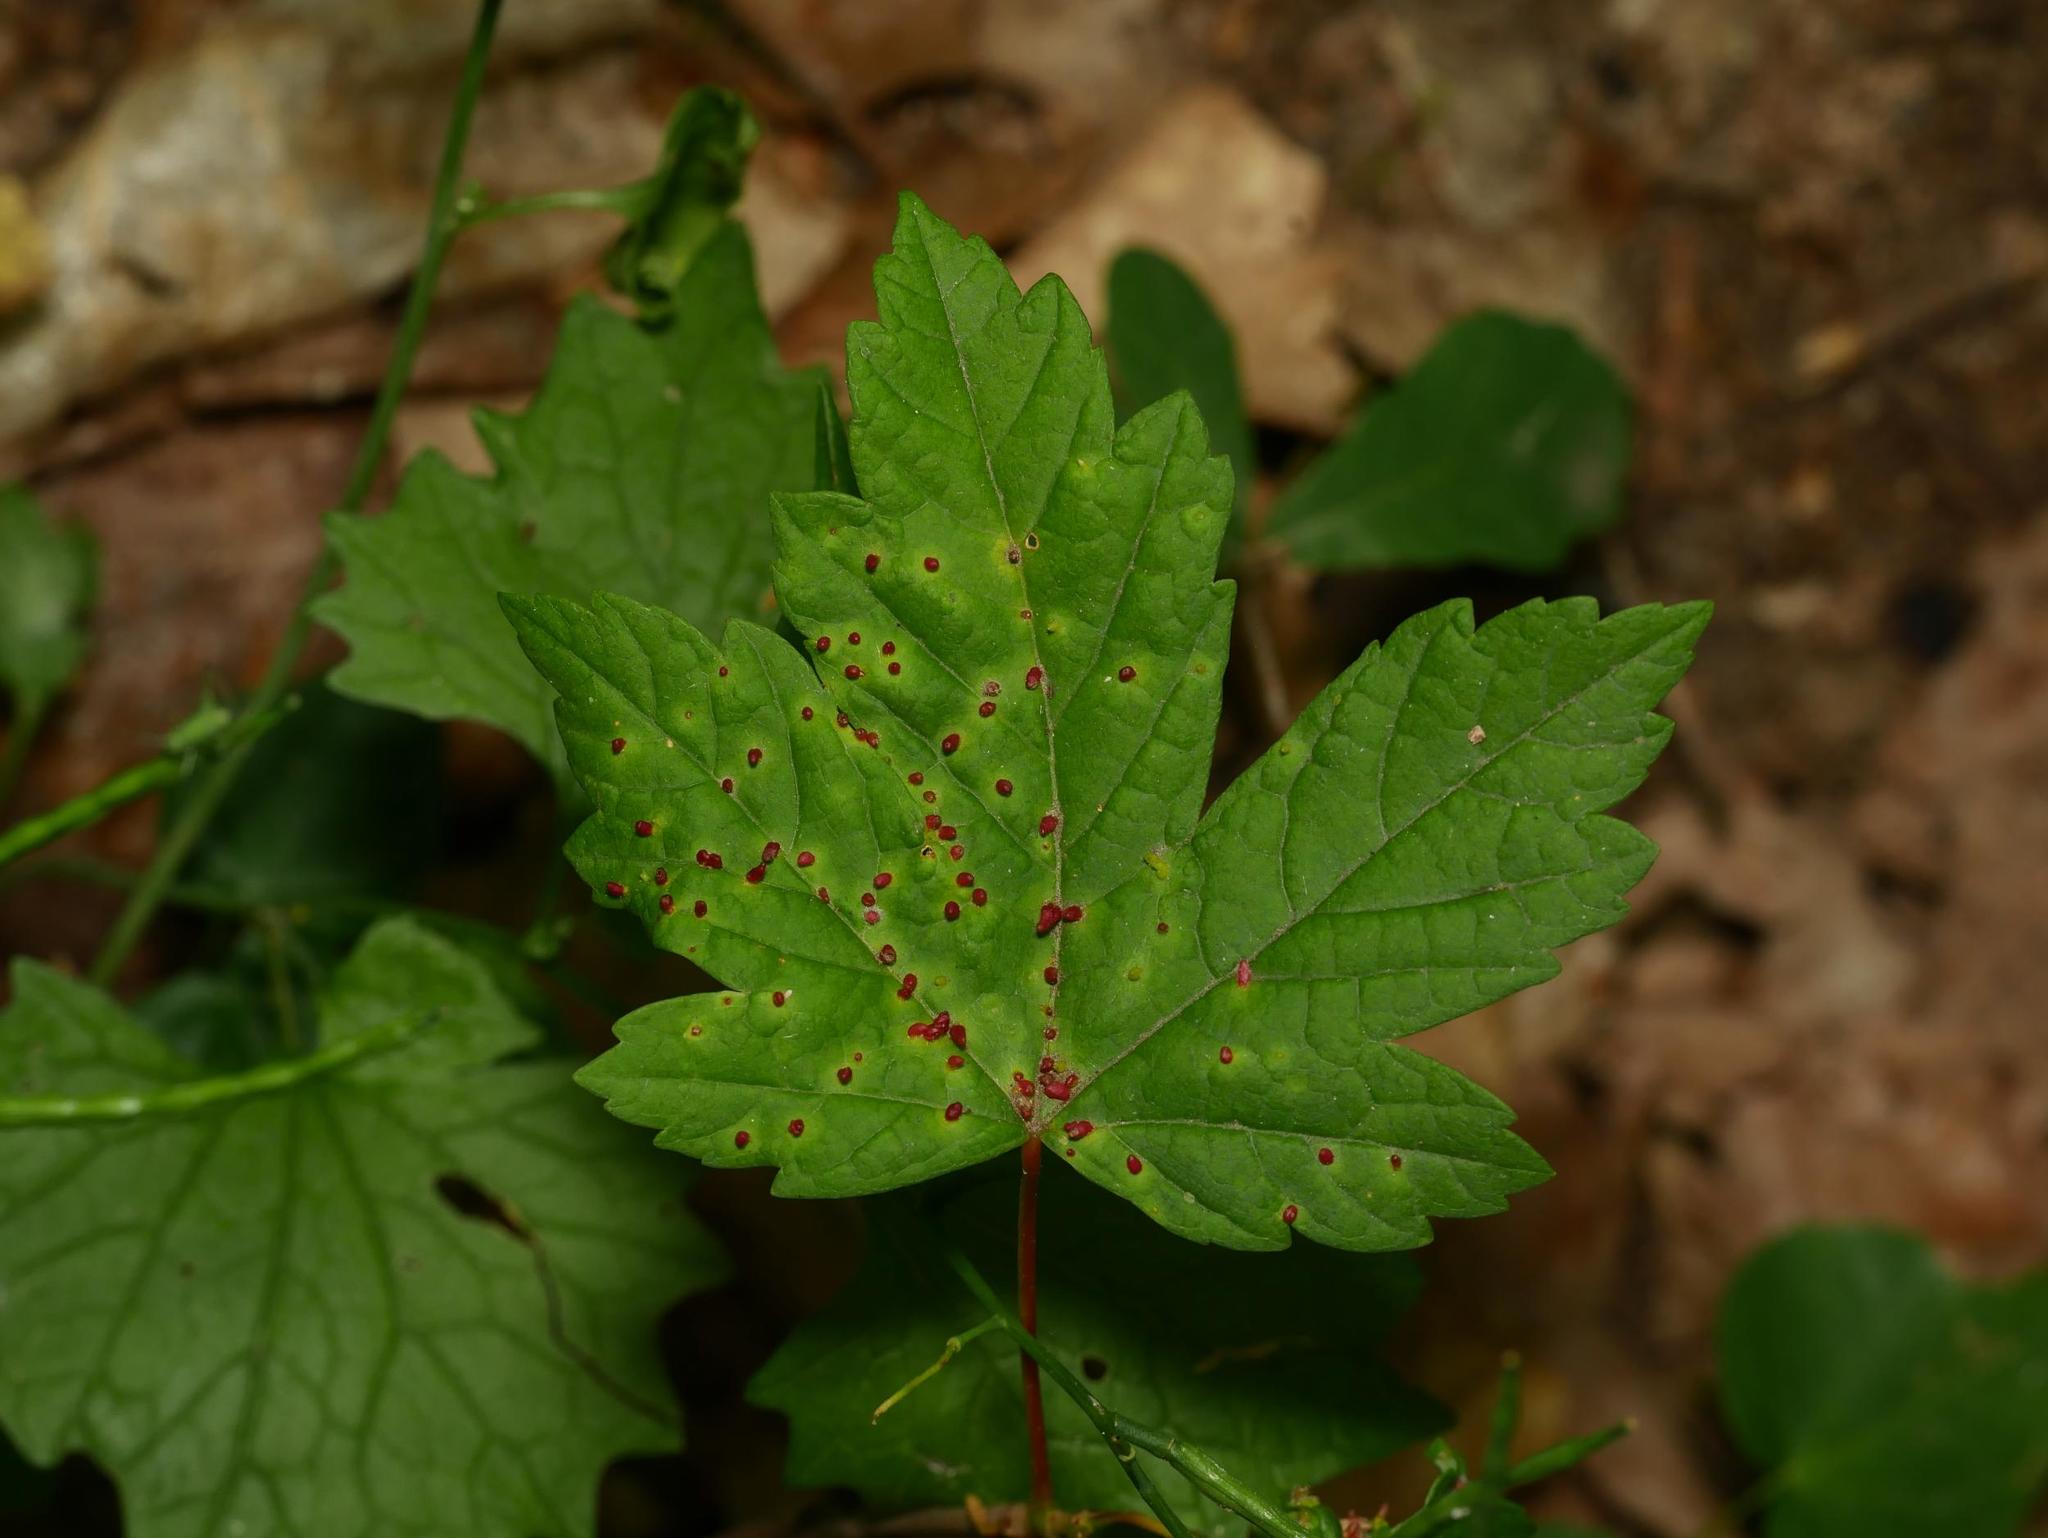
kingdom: Animalia
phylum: Arthropoda
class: Arachnida
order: Trombidiformes
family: Eriophyidae
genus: Aceria
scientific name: Aceria cephaloneus
